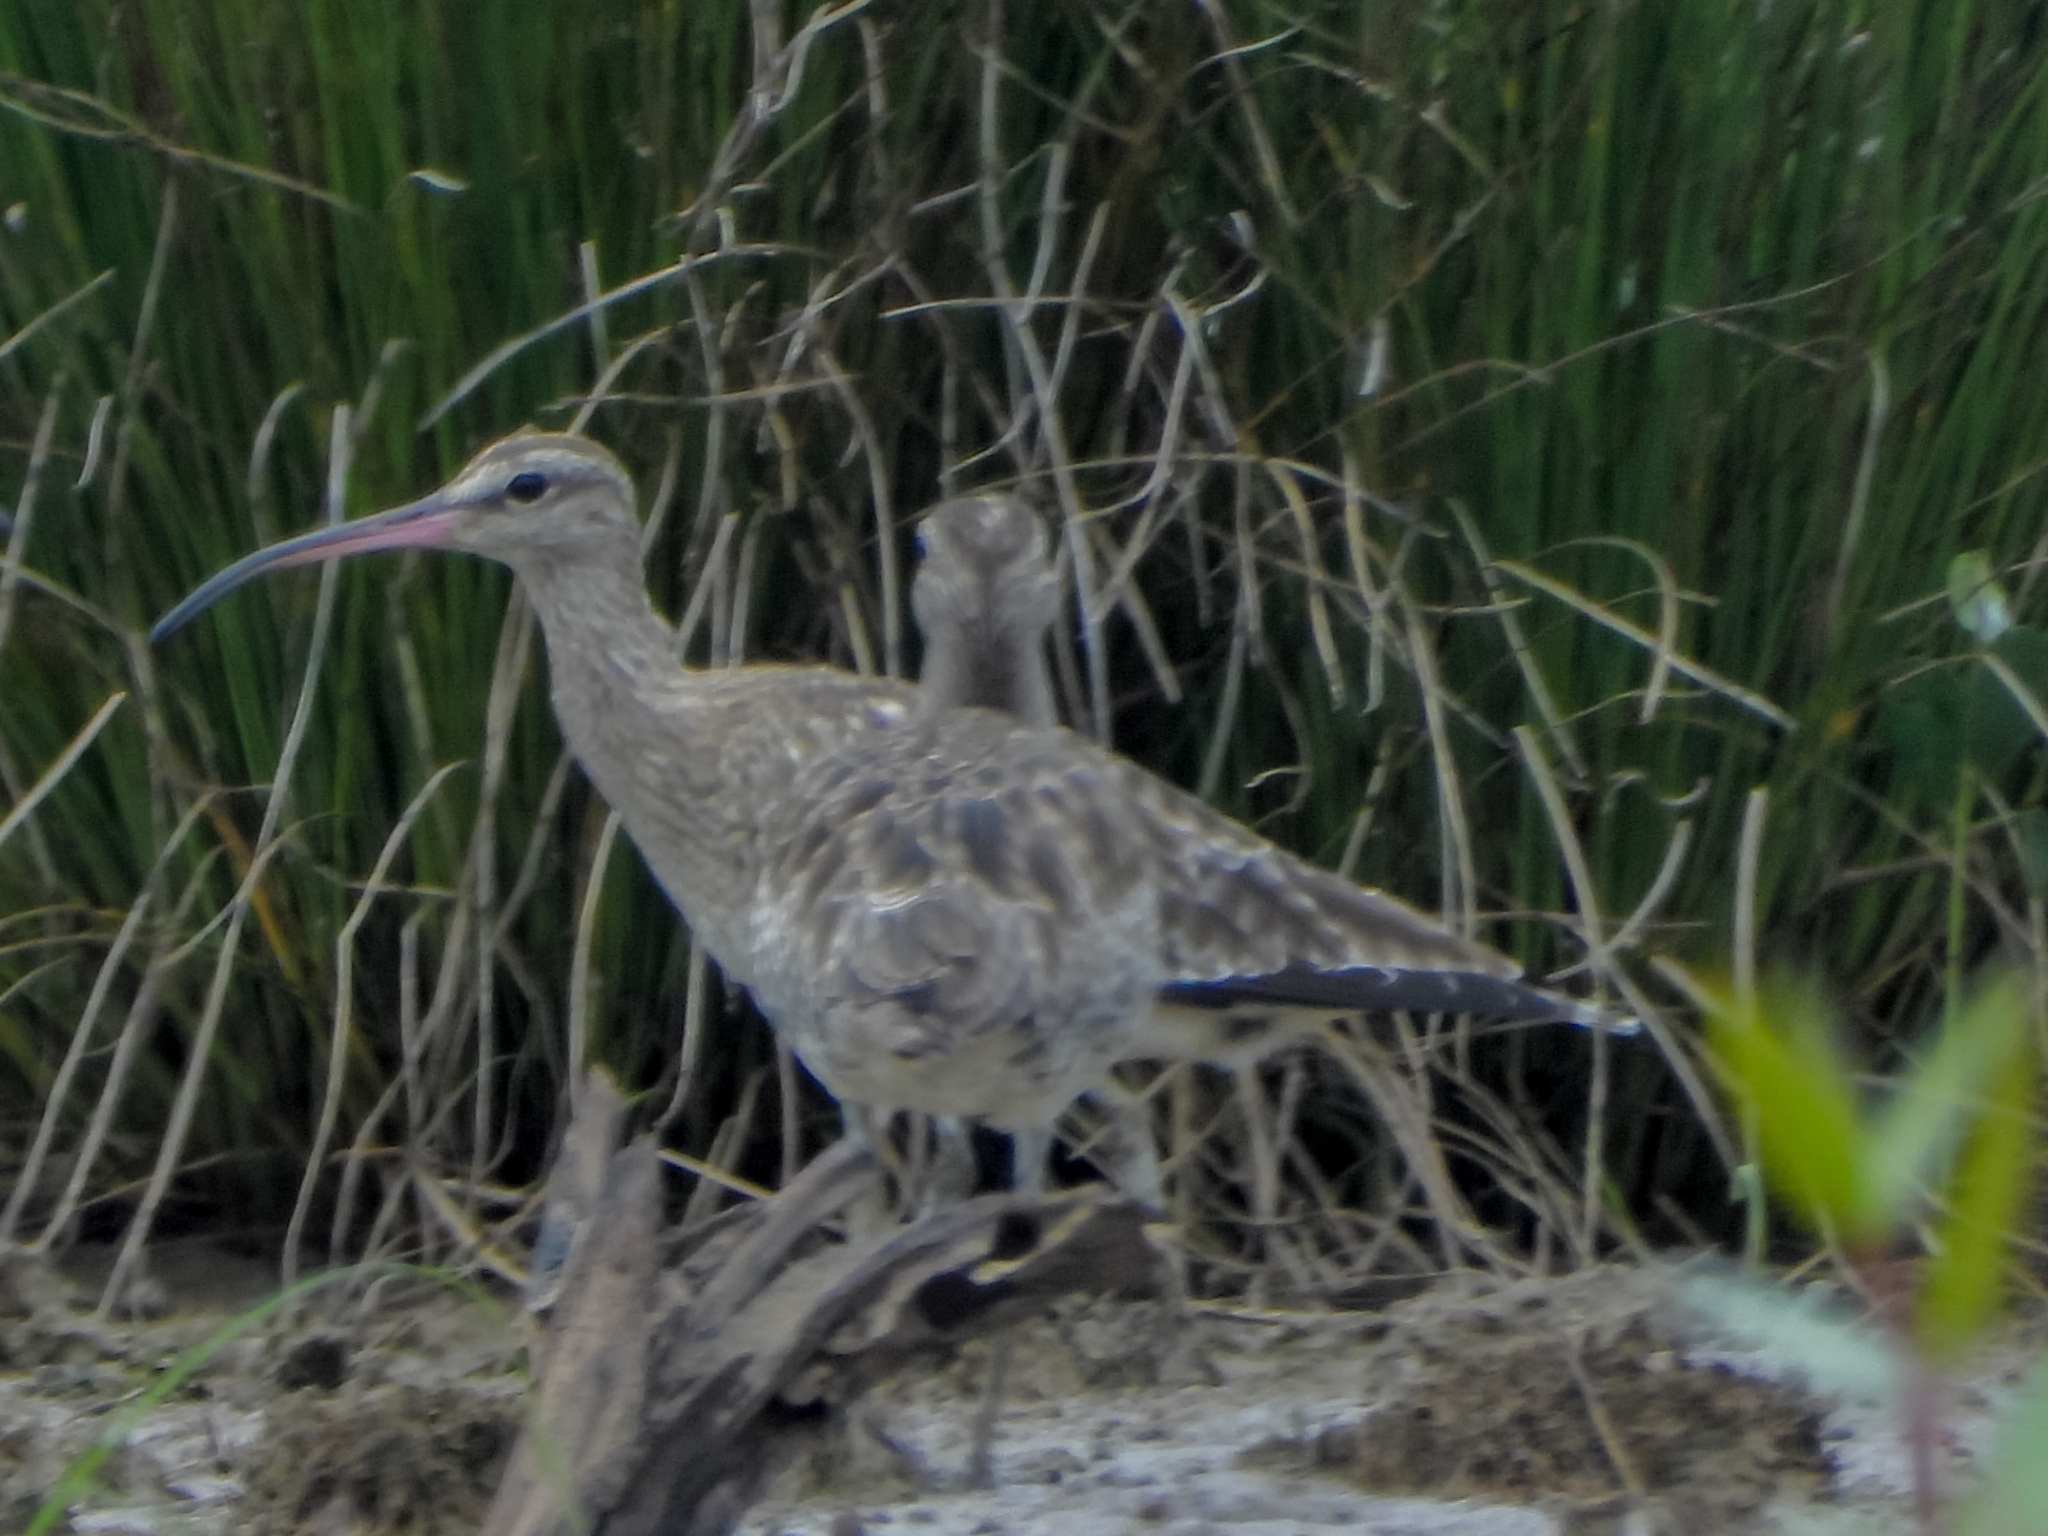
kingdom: Animalia
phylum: Chordata
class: Aves
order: Charadriiformes
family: Scolopacidae
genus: Numenius
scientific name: Numenius phaeopus
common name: Whimbrel
